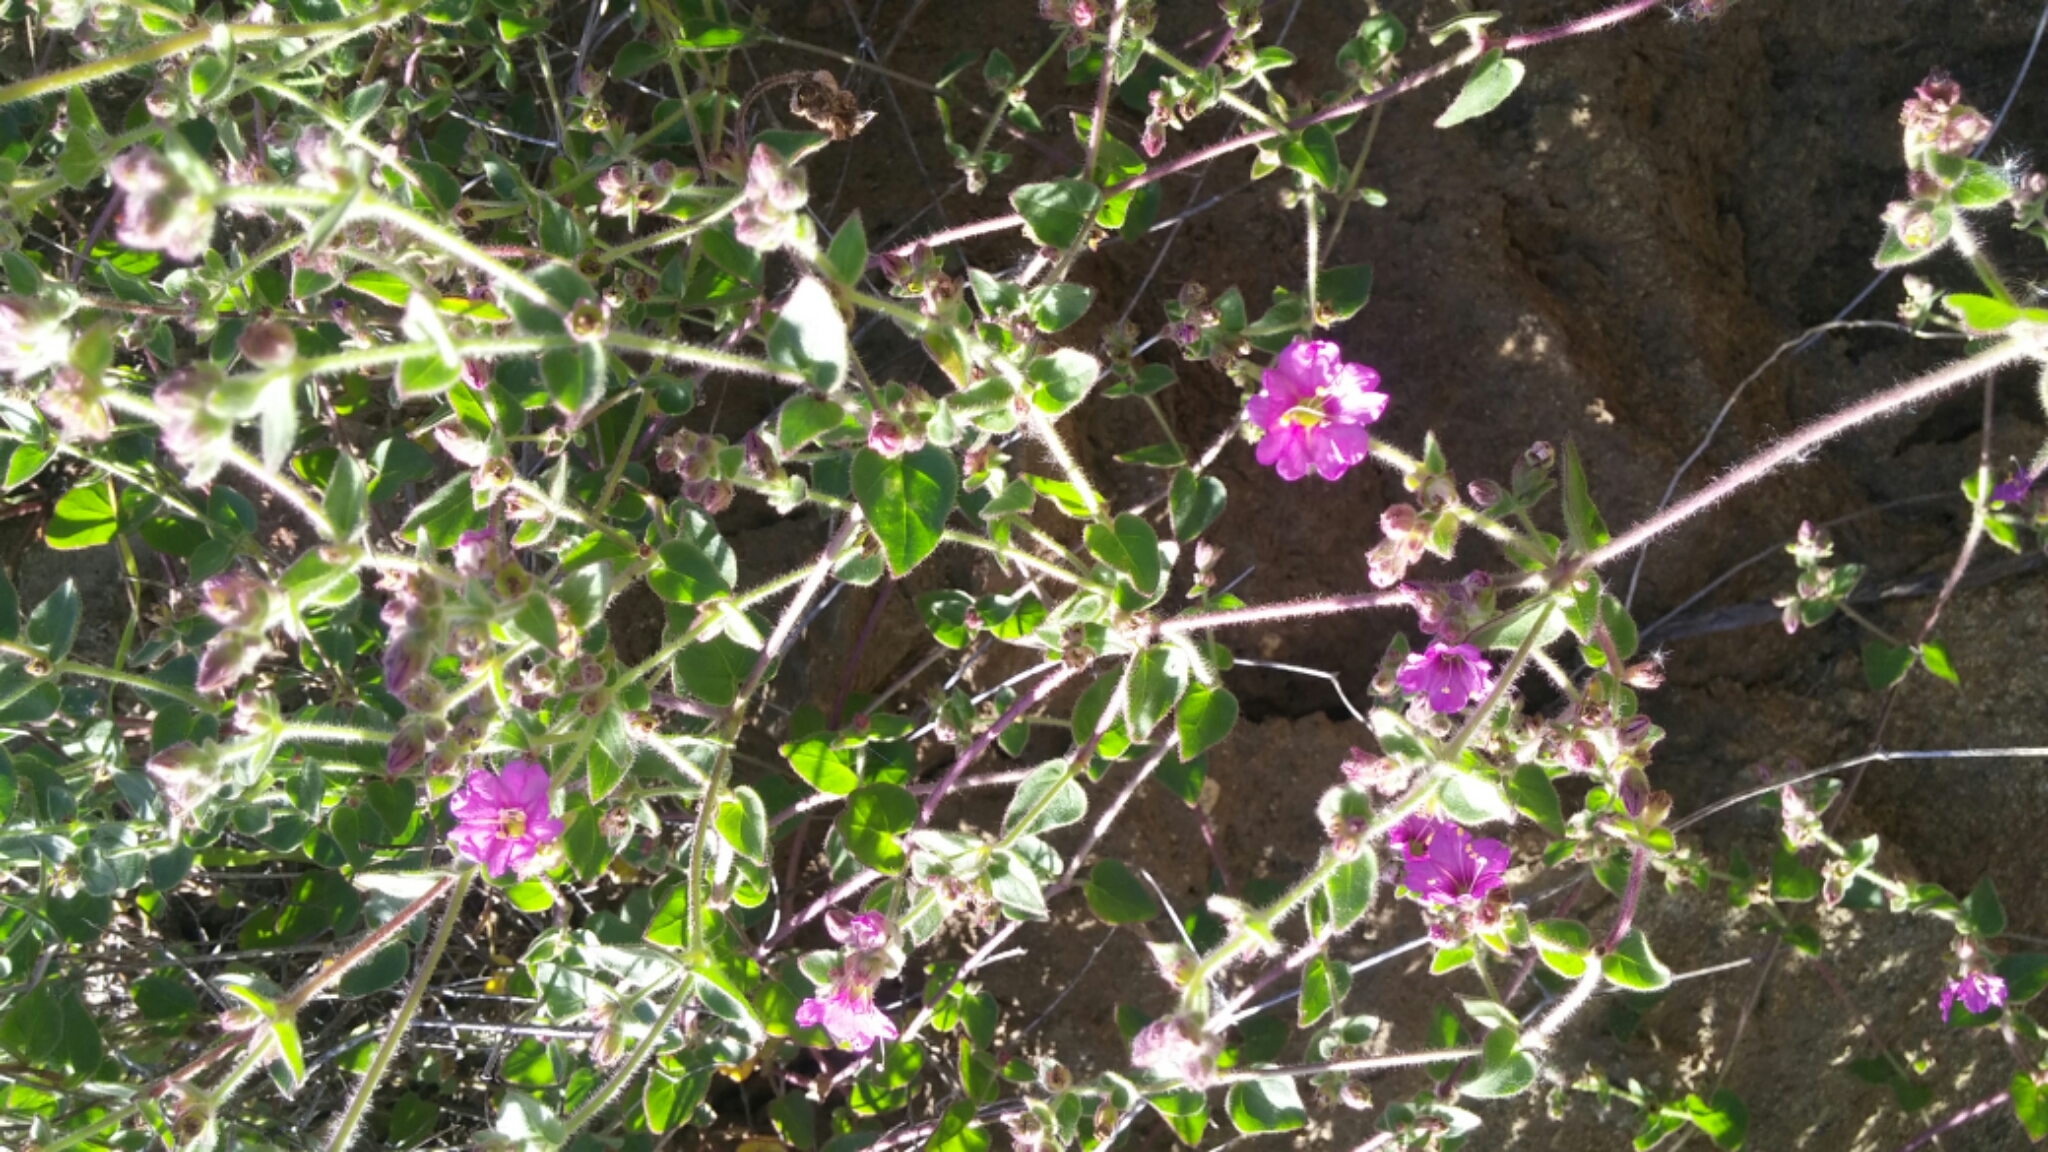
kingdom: Plantae
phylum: Tracheophyta
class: Magnoliopsida
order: Caryophyllales
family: Nyctaginaceae
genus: Mirabilis
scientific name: Mirabilis laevis
